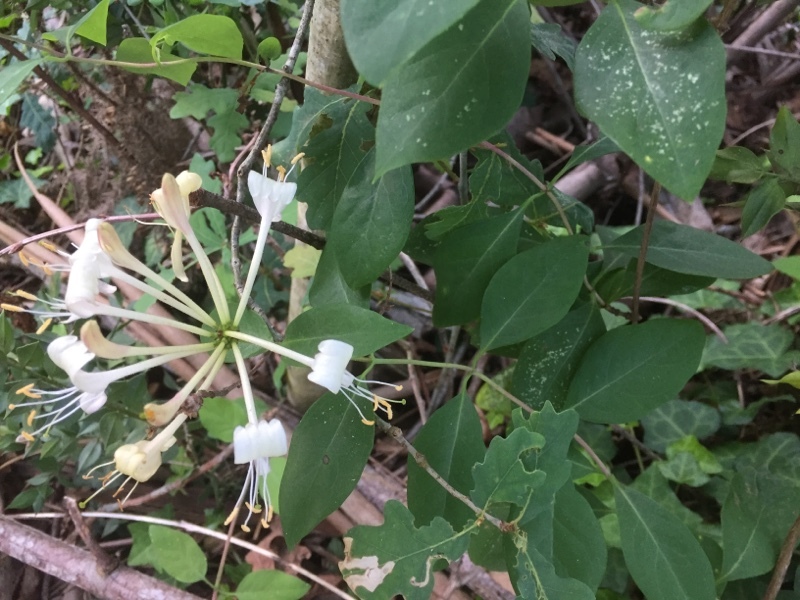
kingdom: Plantae
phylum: Tracheophyta
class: Magnoliopsida
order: Dipsacales
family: Caprifoliaceae
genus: Lonicera
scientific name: Lonicera periclymenum
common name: European honeysuckle
